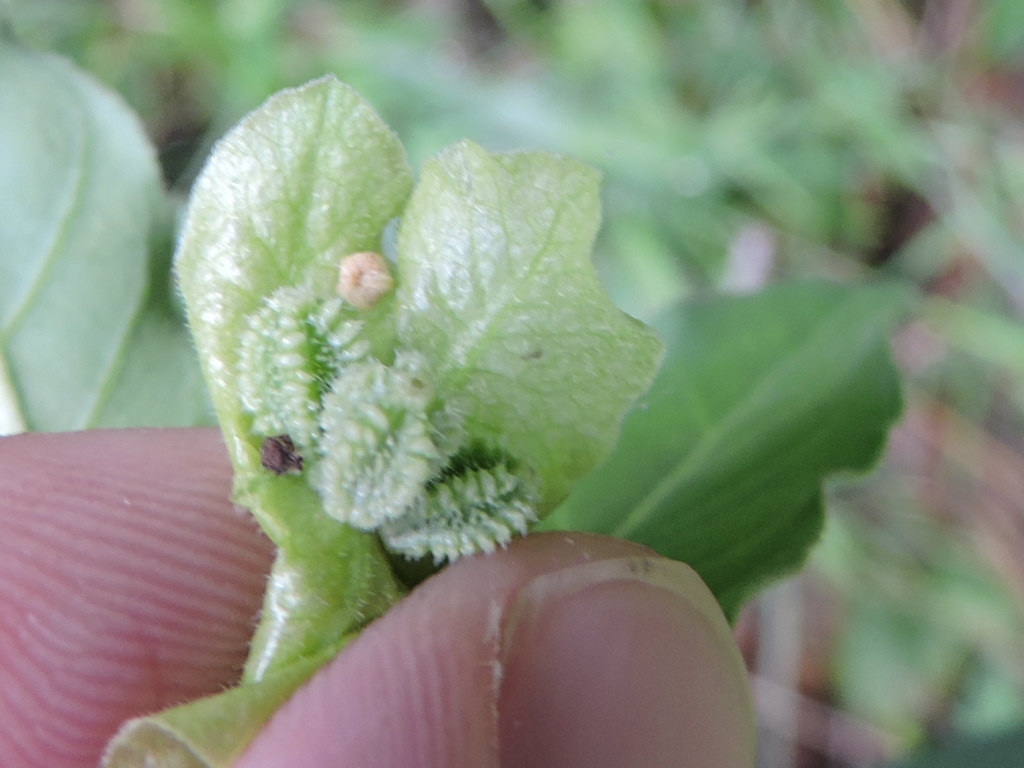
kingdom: Plantae
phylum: Tracheophyta
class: Magnoliopsida
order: Caryophyllales
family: Nyctaginaceae
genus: Mirabilis
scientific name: Mirabilis gigantea
